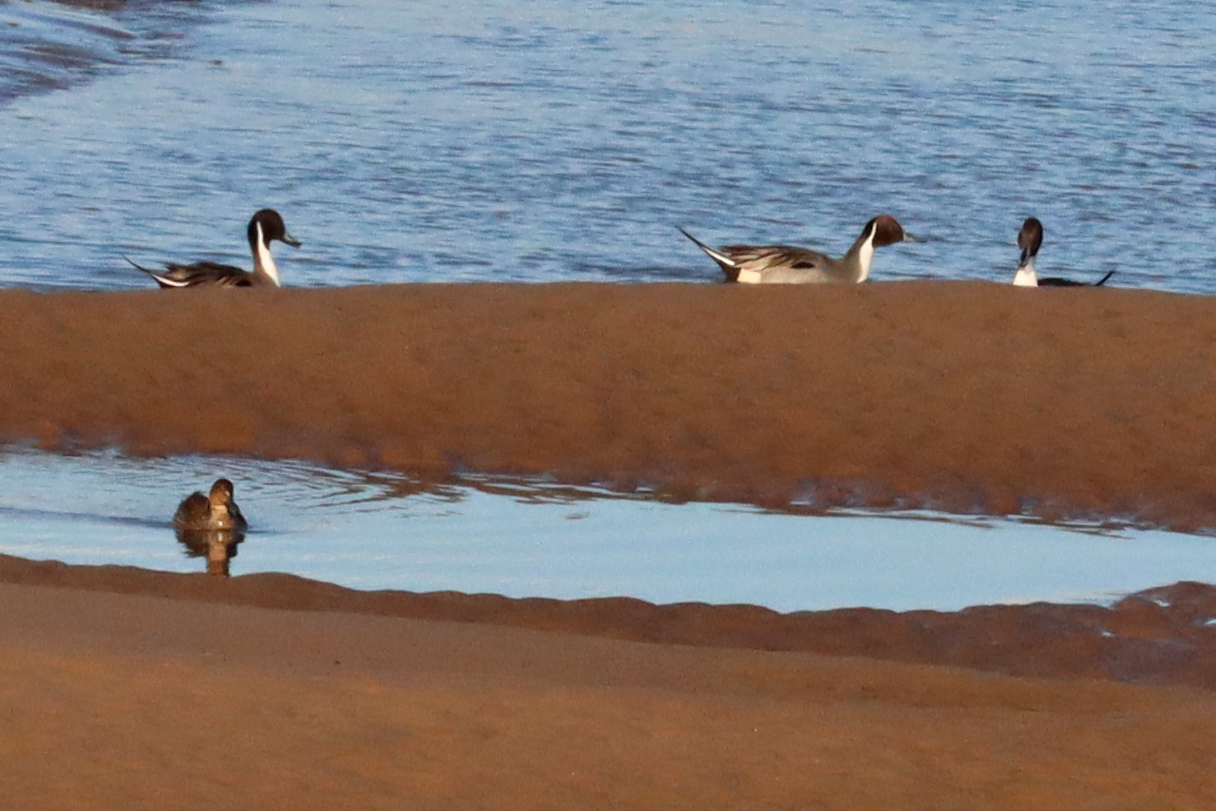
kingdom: Animalia
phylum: Chordata
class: Aves
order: Anseriformes
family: Anatidae
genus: Anas
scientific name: Anas acuta
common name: Northern pintail
